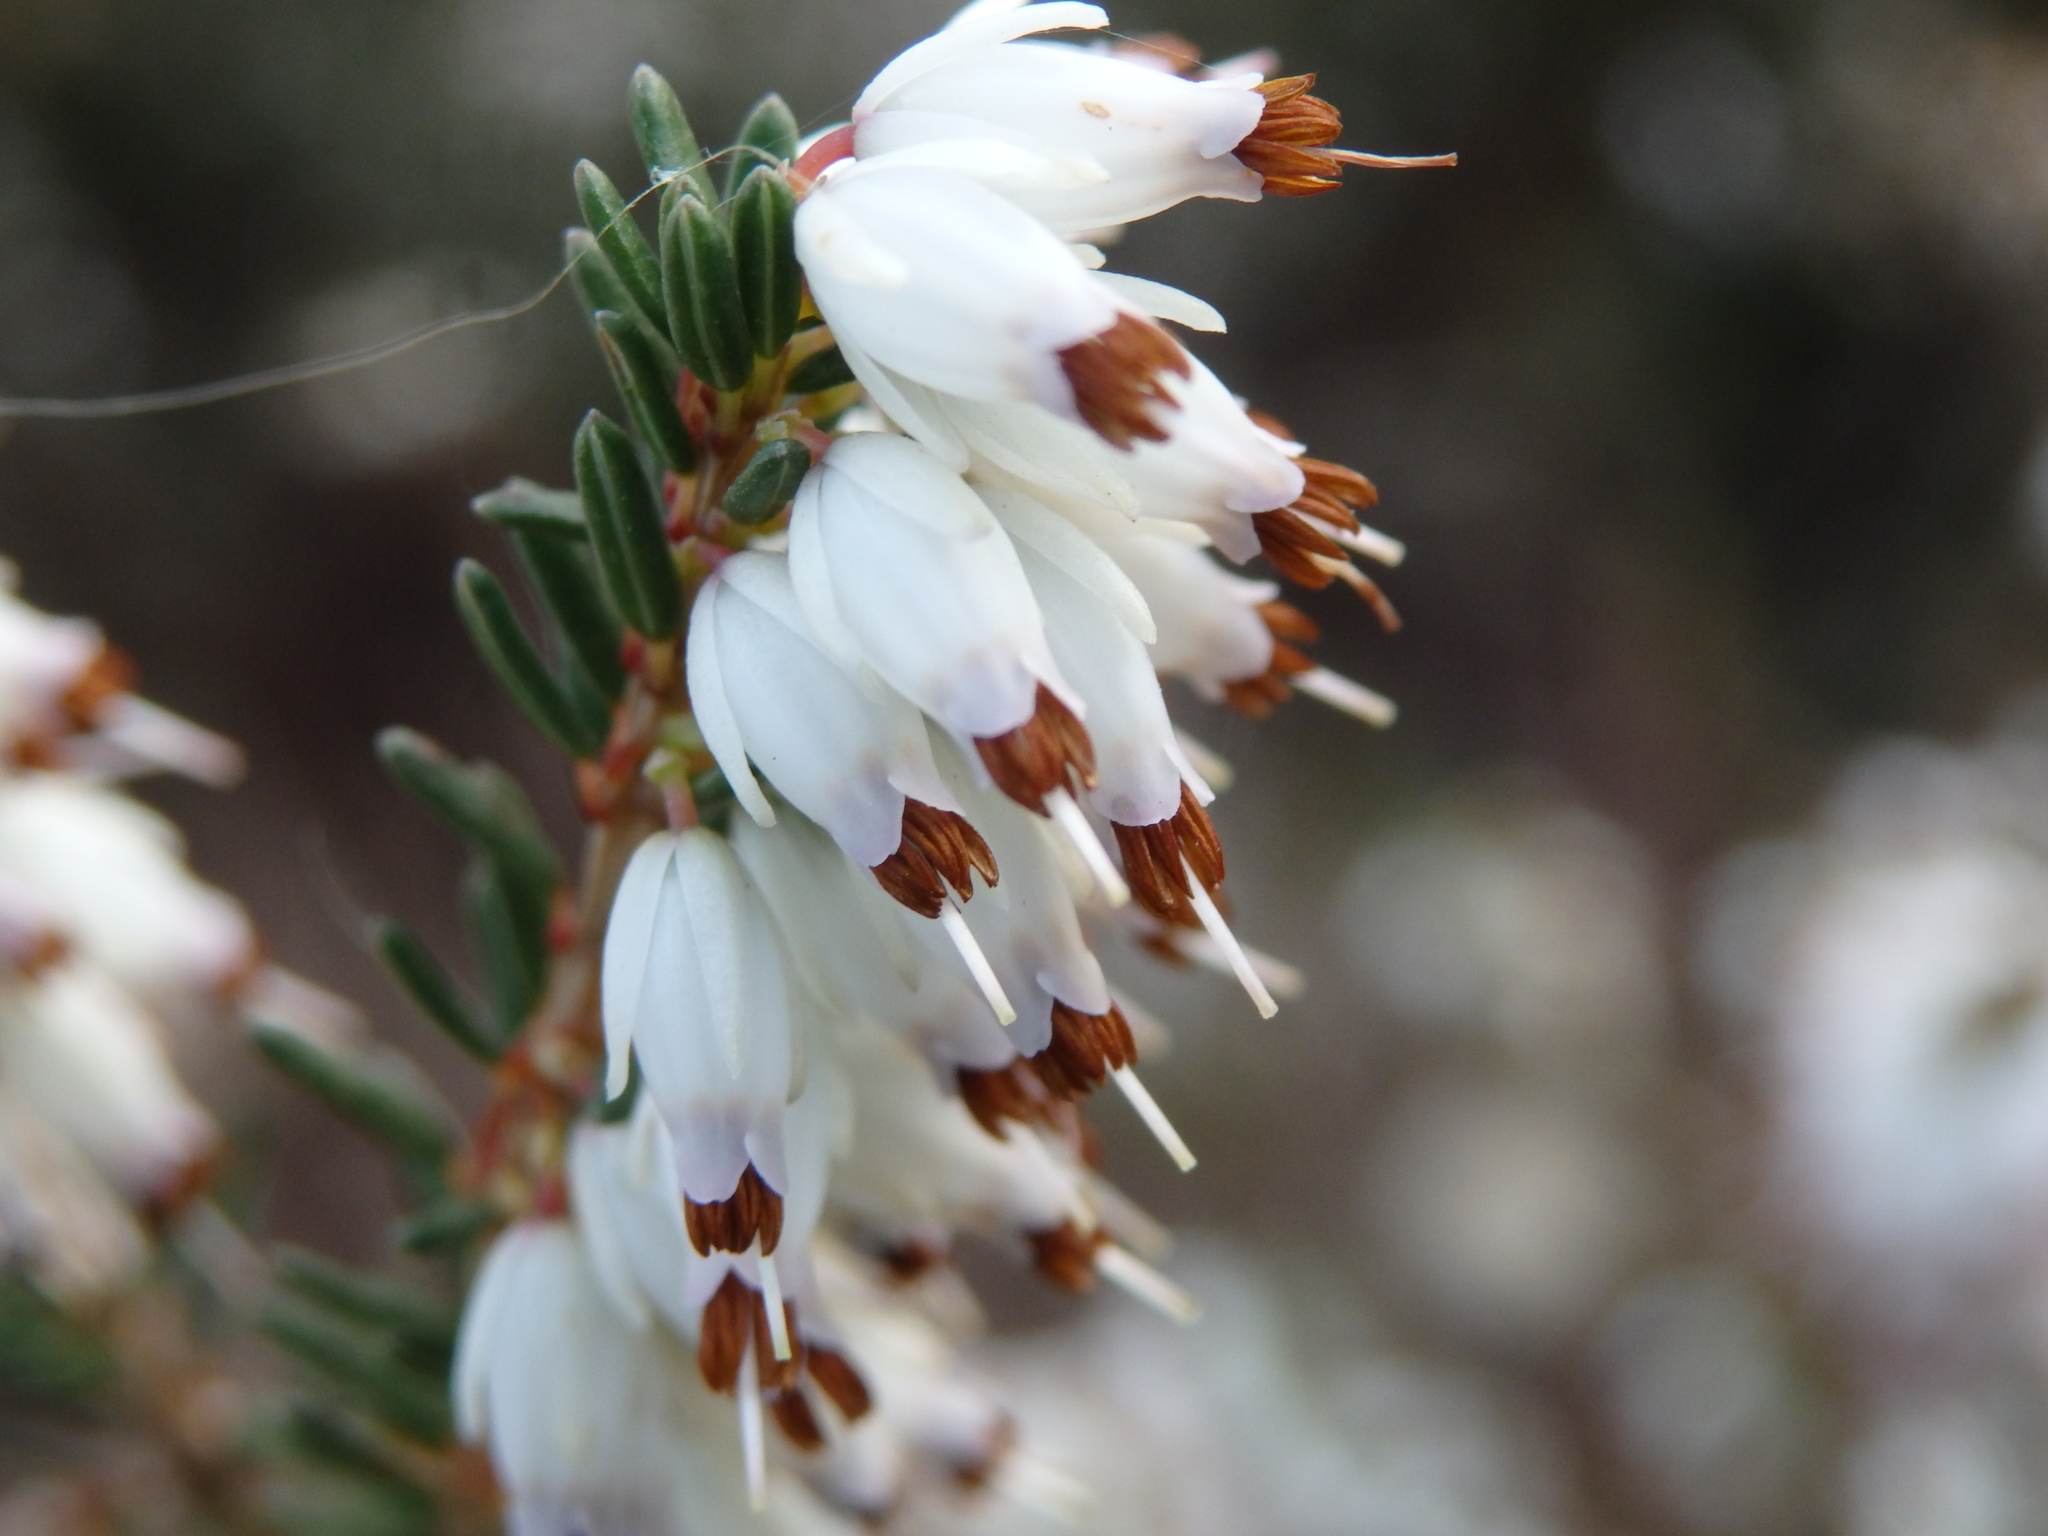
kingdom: Plantae
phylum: Tracheophyta
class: Magnoliopsida
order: Ericales
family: Ericaceae
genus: Erica
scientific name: Erica erigena
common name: Irish heath
